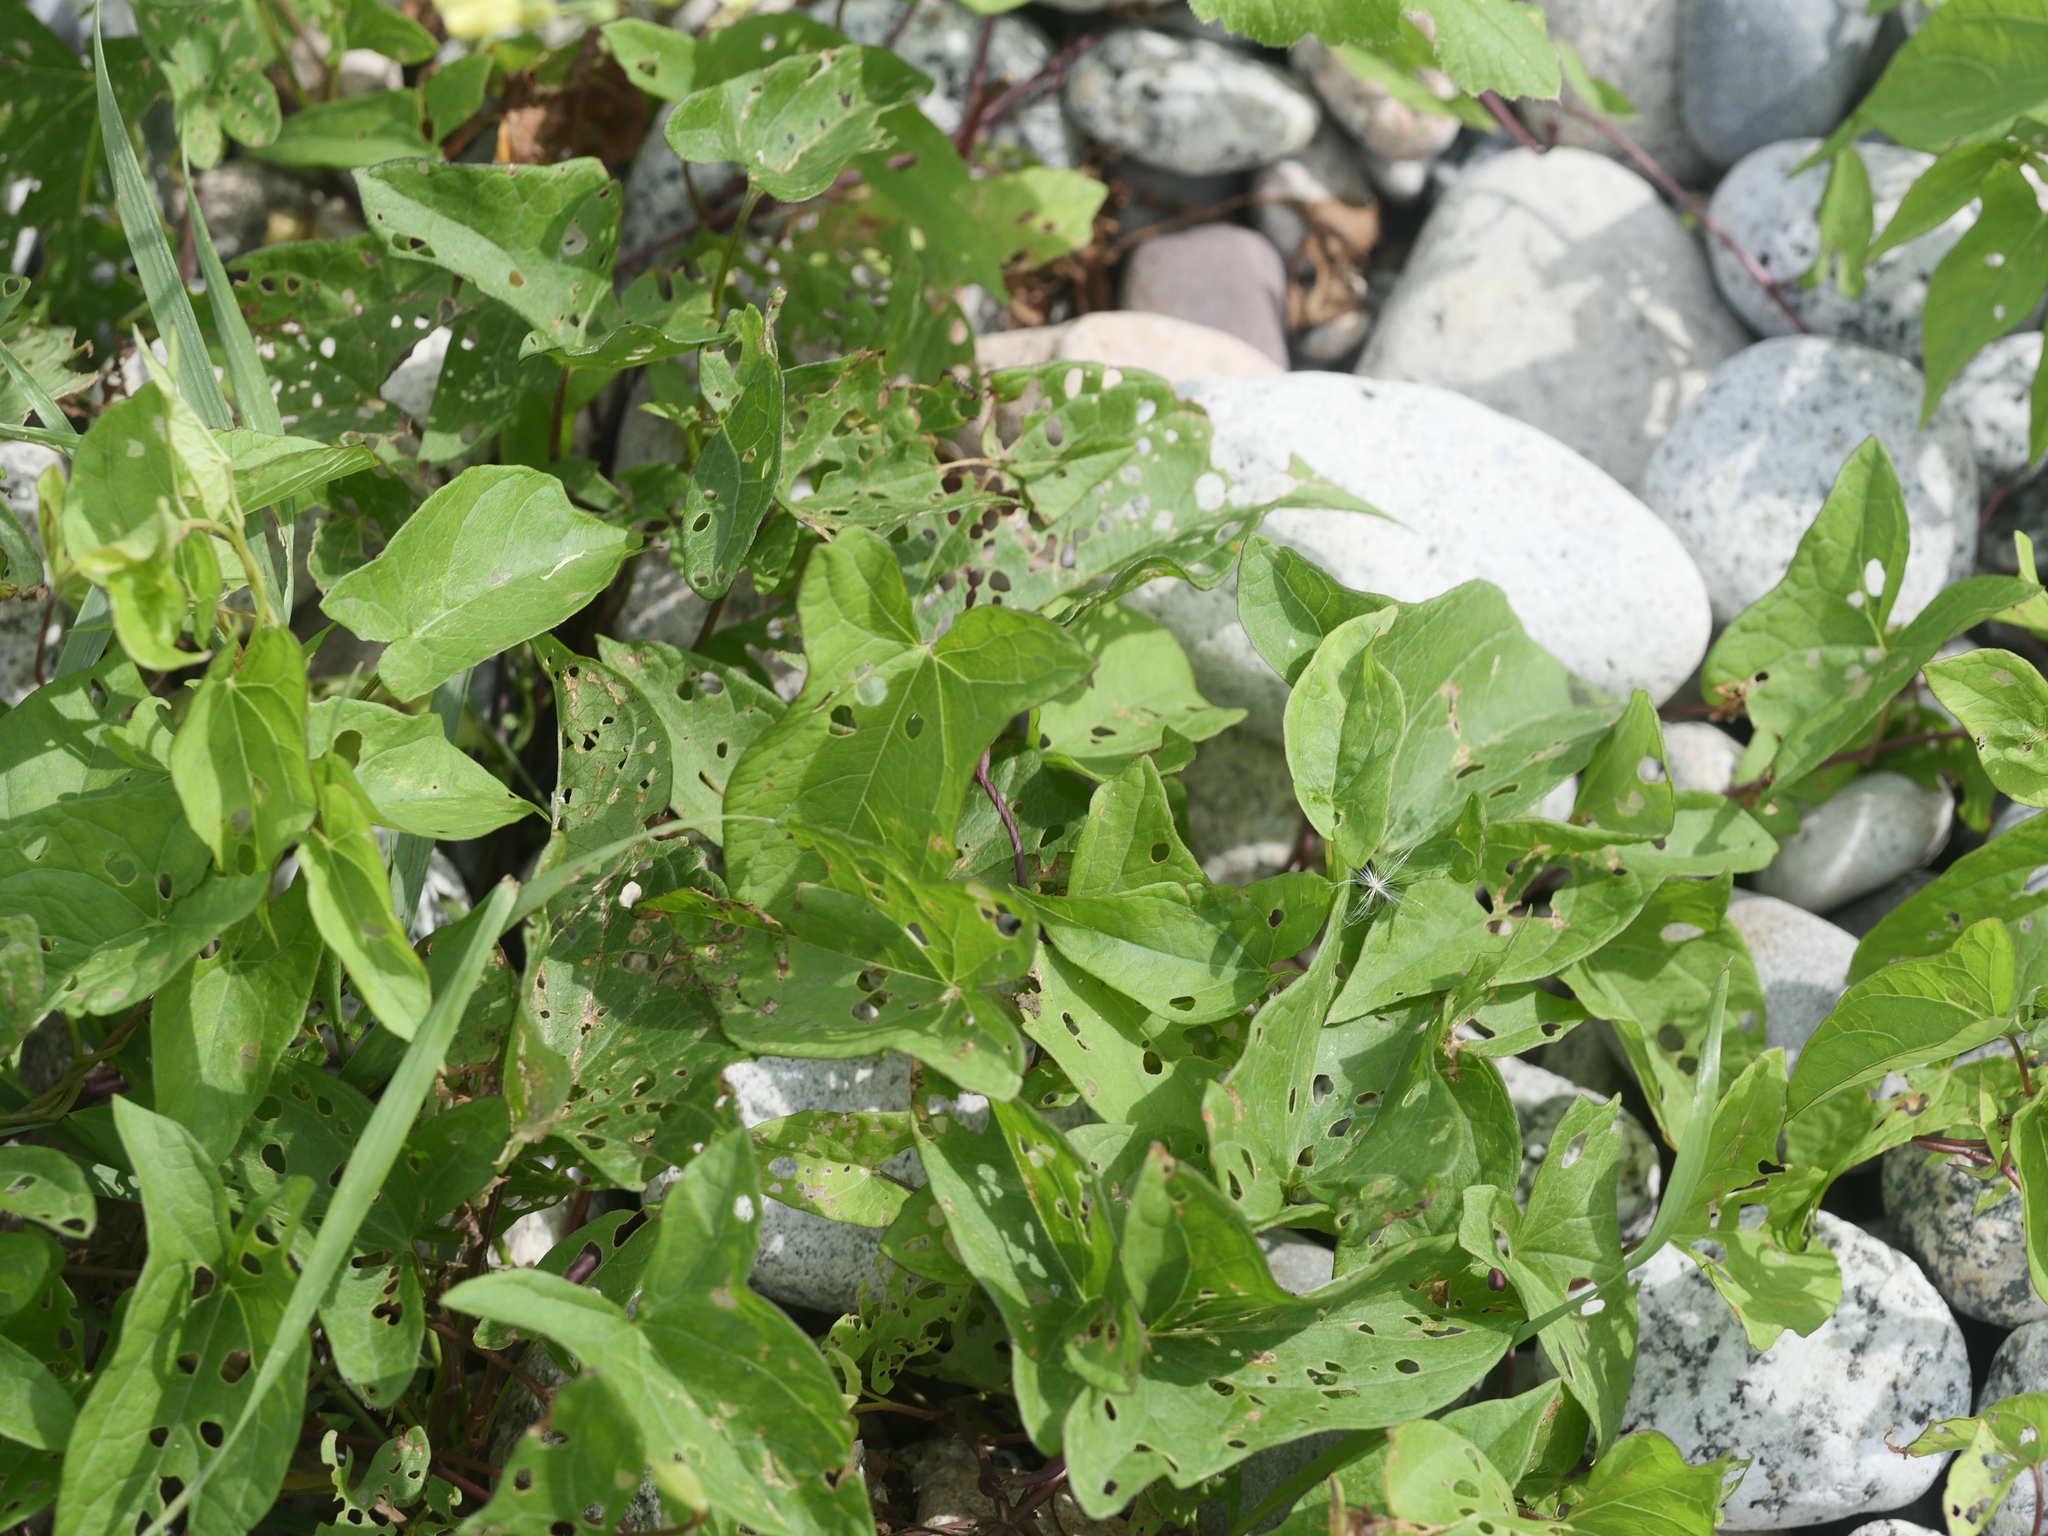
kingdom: Plantae
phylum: Tracheophyta
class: Magnoliopsida
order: Solanales
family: Convolvulaceae
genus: Calystegia
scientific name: Calystegia sepium
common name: Hedge bindweed
